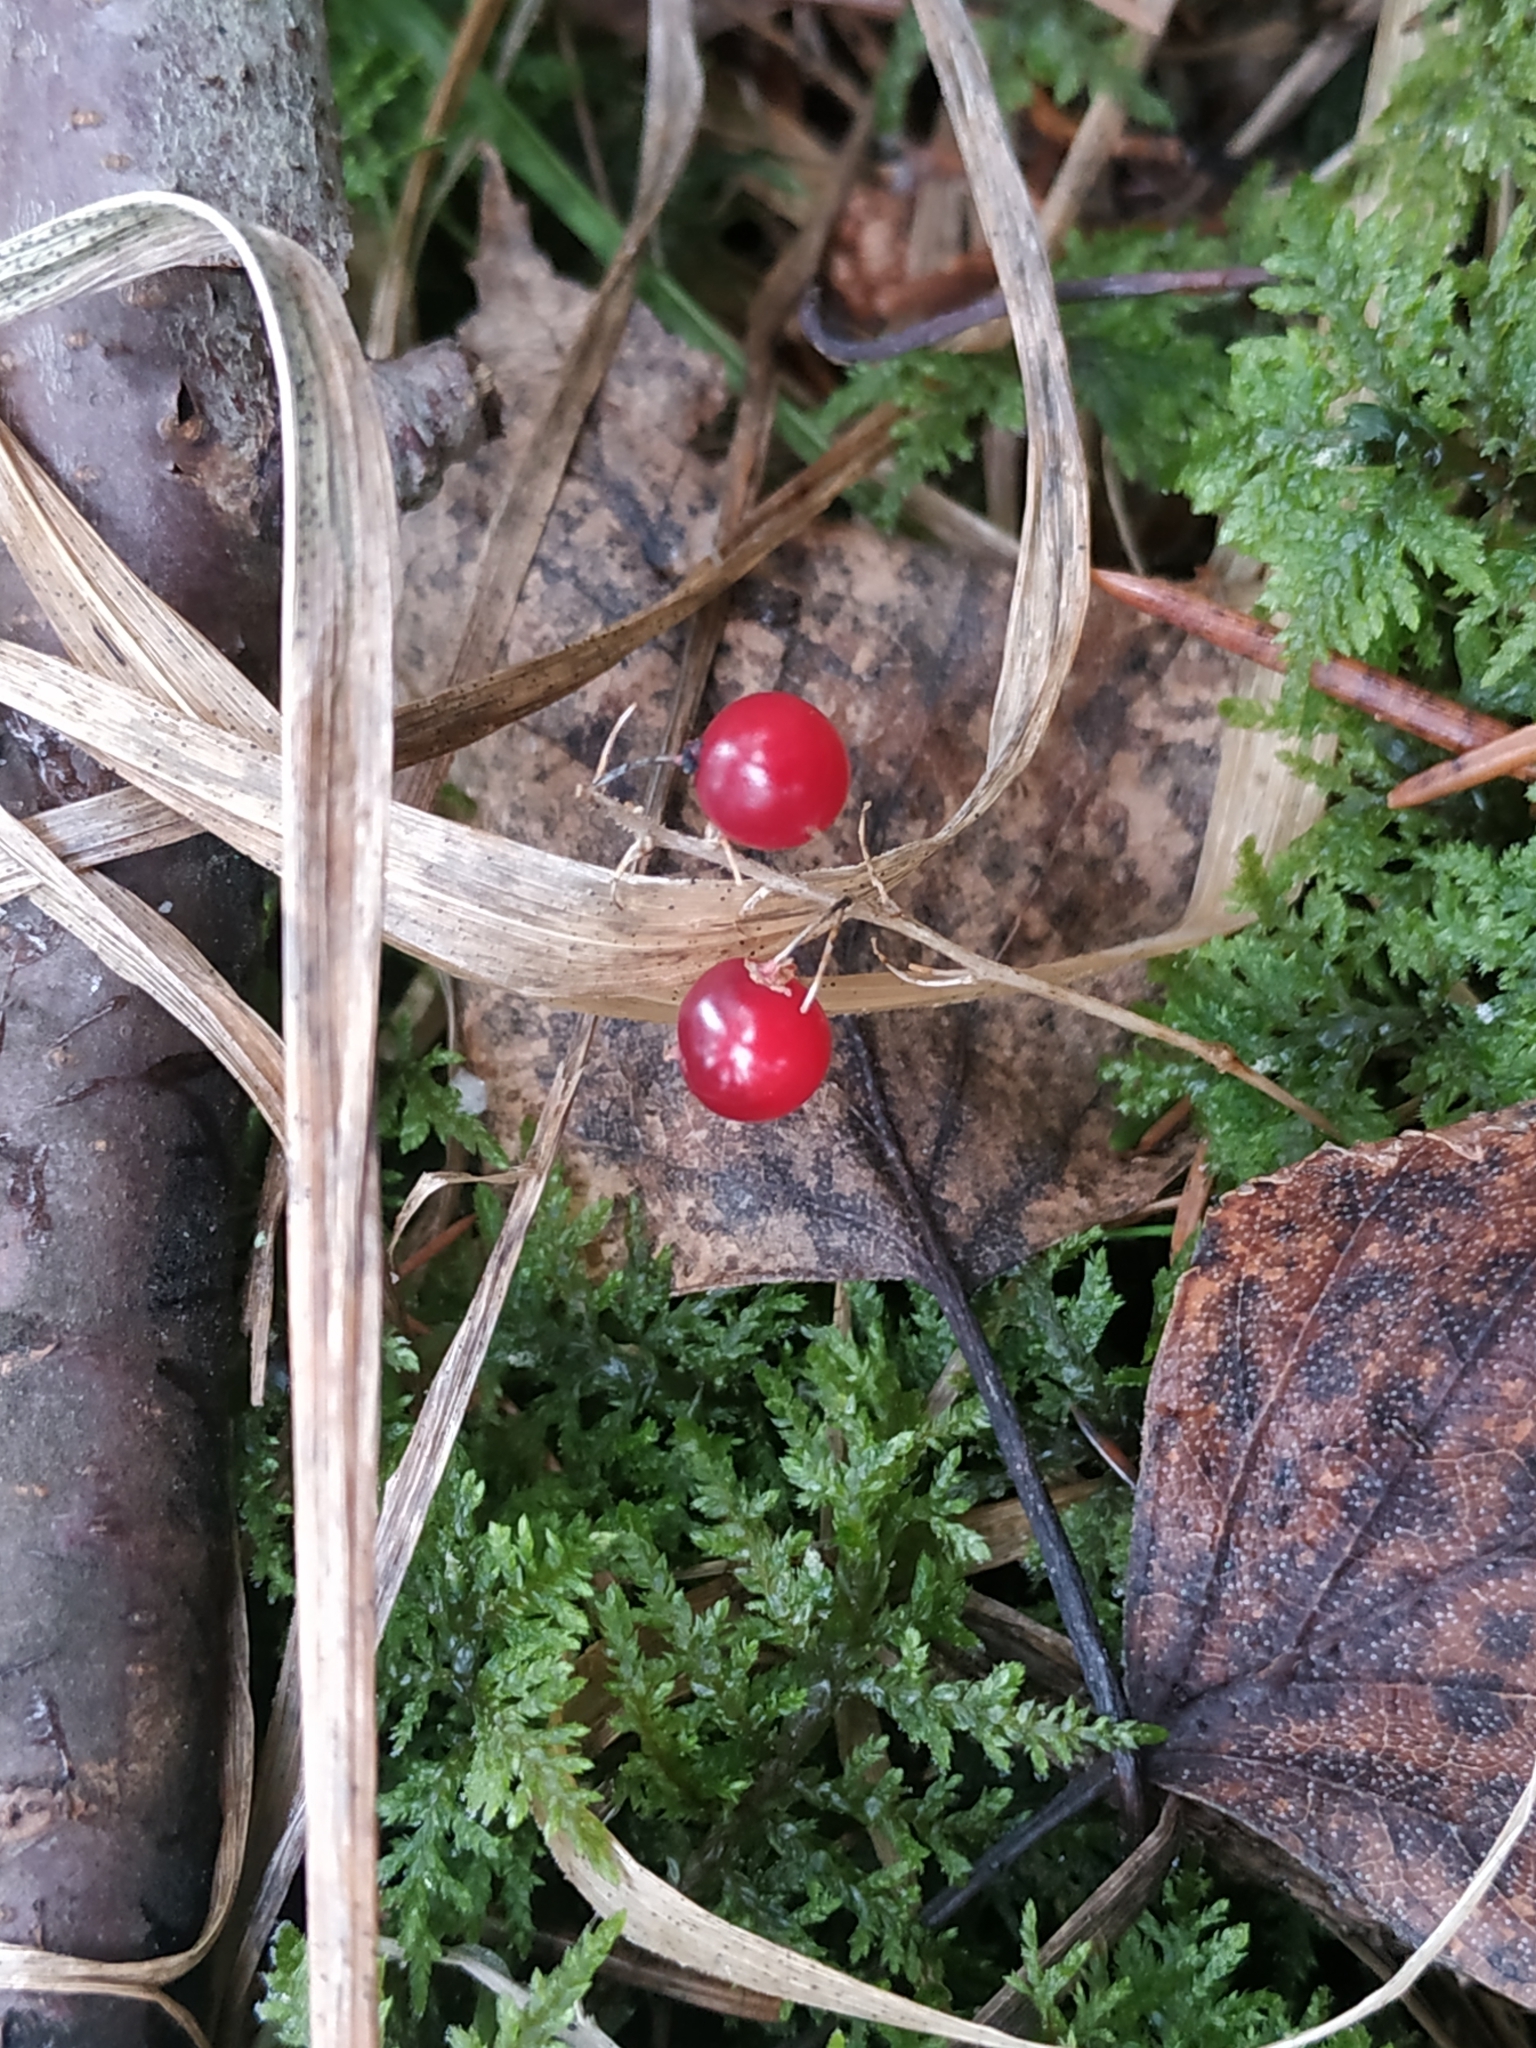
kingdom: Plantae
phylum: Tracheophyta
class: Liliopsida
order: Asparagales
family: Asparagaceae
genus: Maianthemum
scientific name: Maianthemum bifolium
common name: May lily
